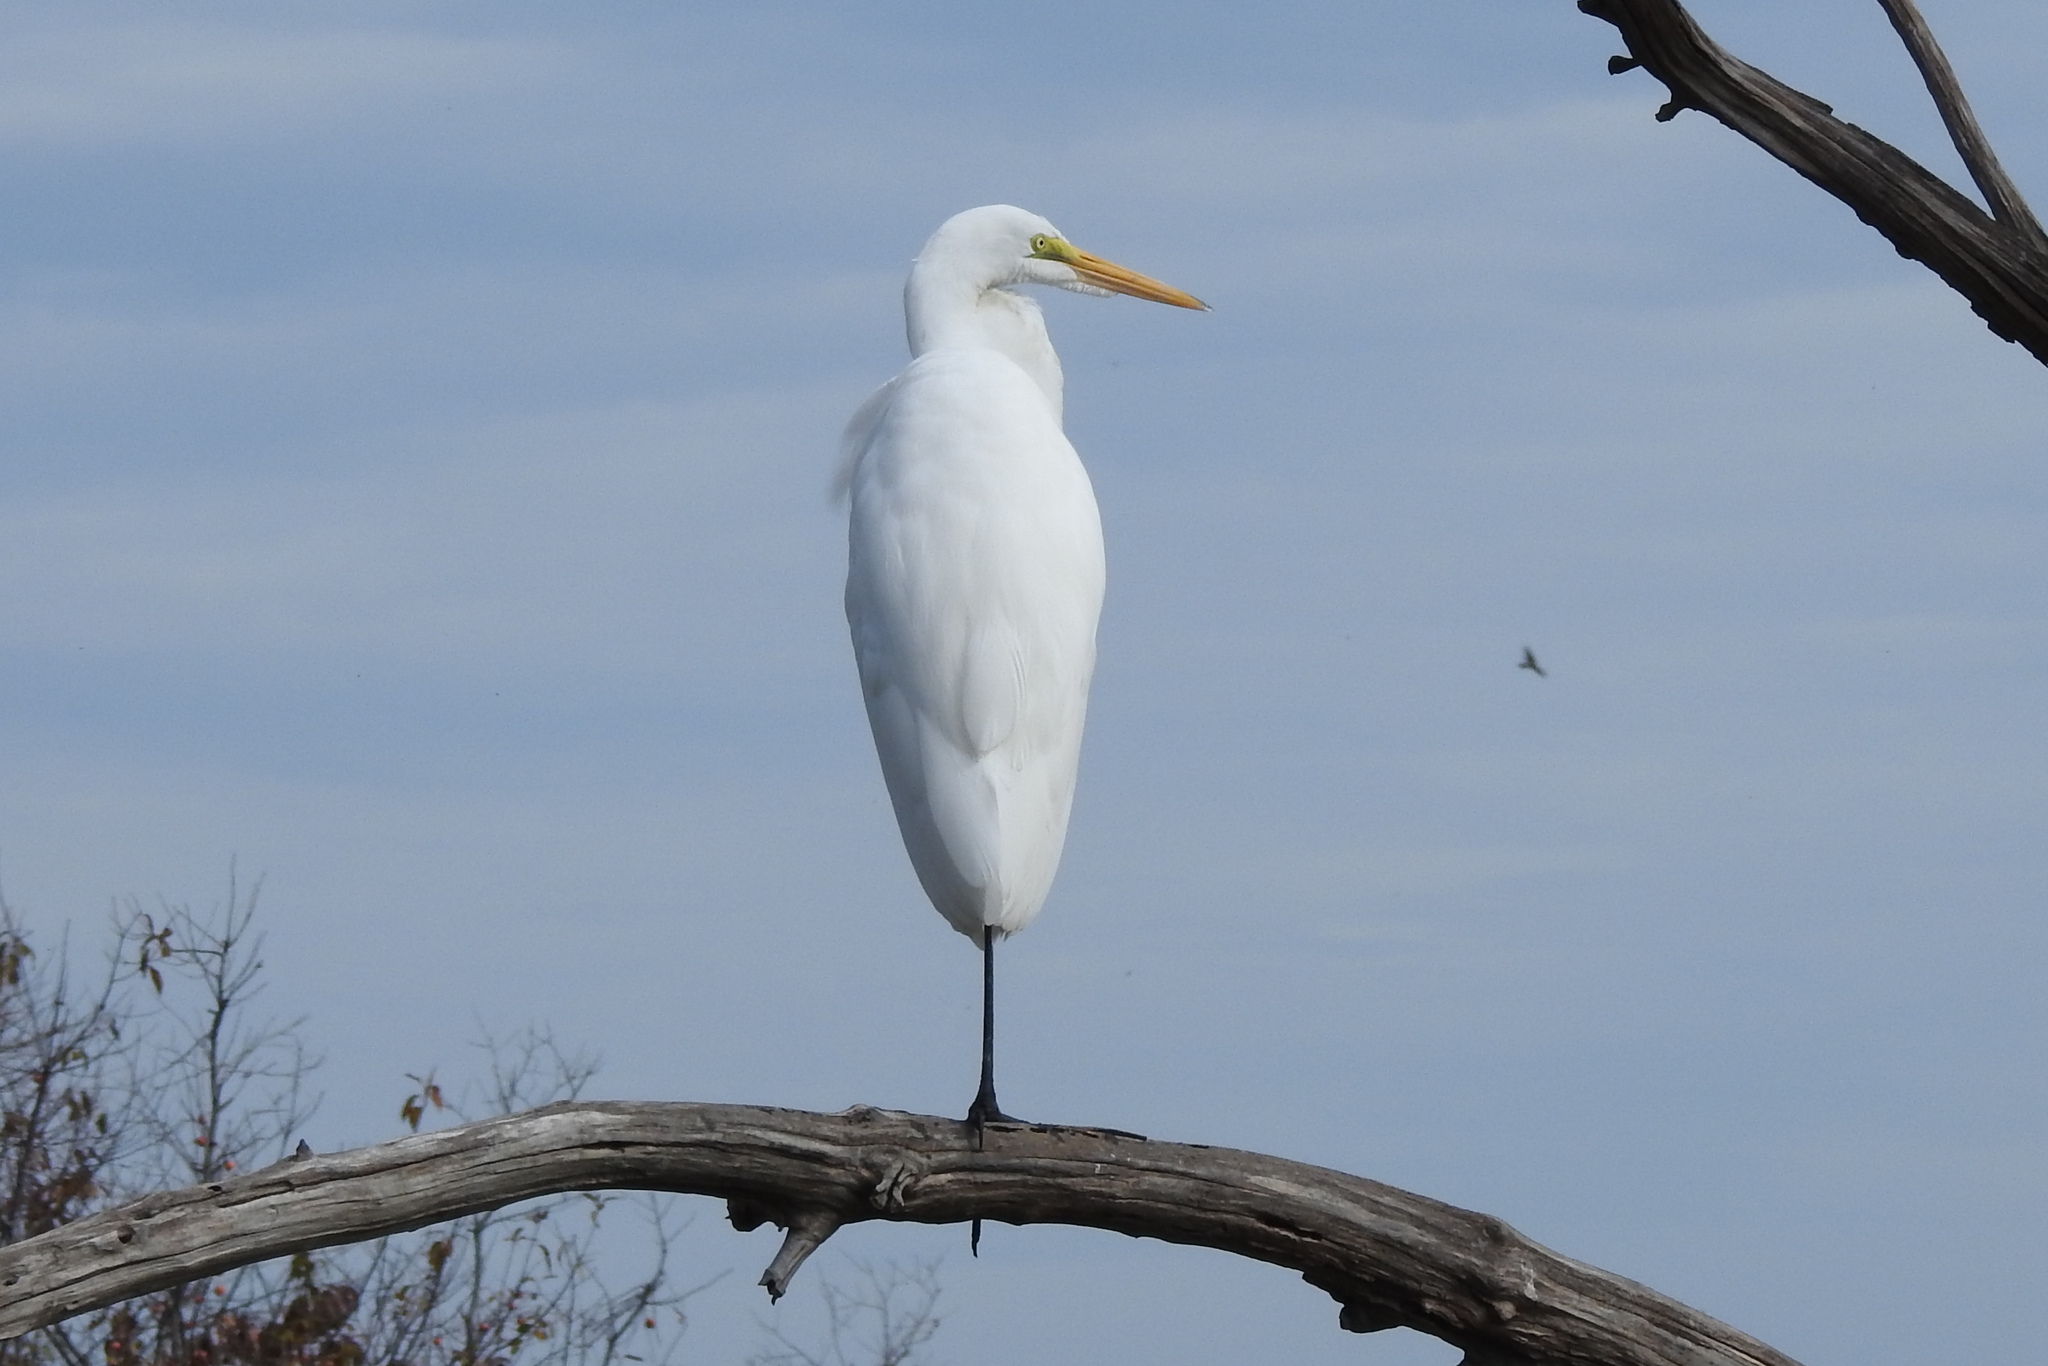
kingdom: Animalia
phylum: Chordata
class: Aves
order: Pelecaniformes
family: Ardeidae
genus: Ardea
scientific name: Ardea alba
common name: Great egret
